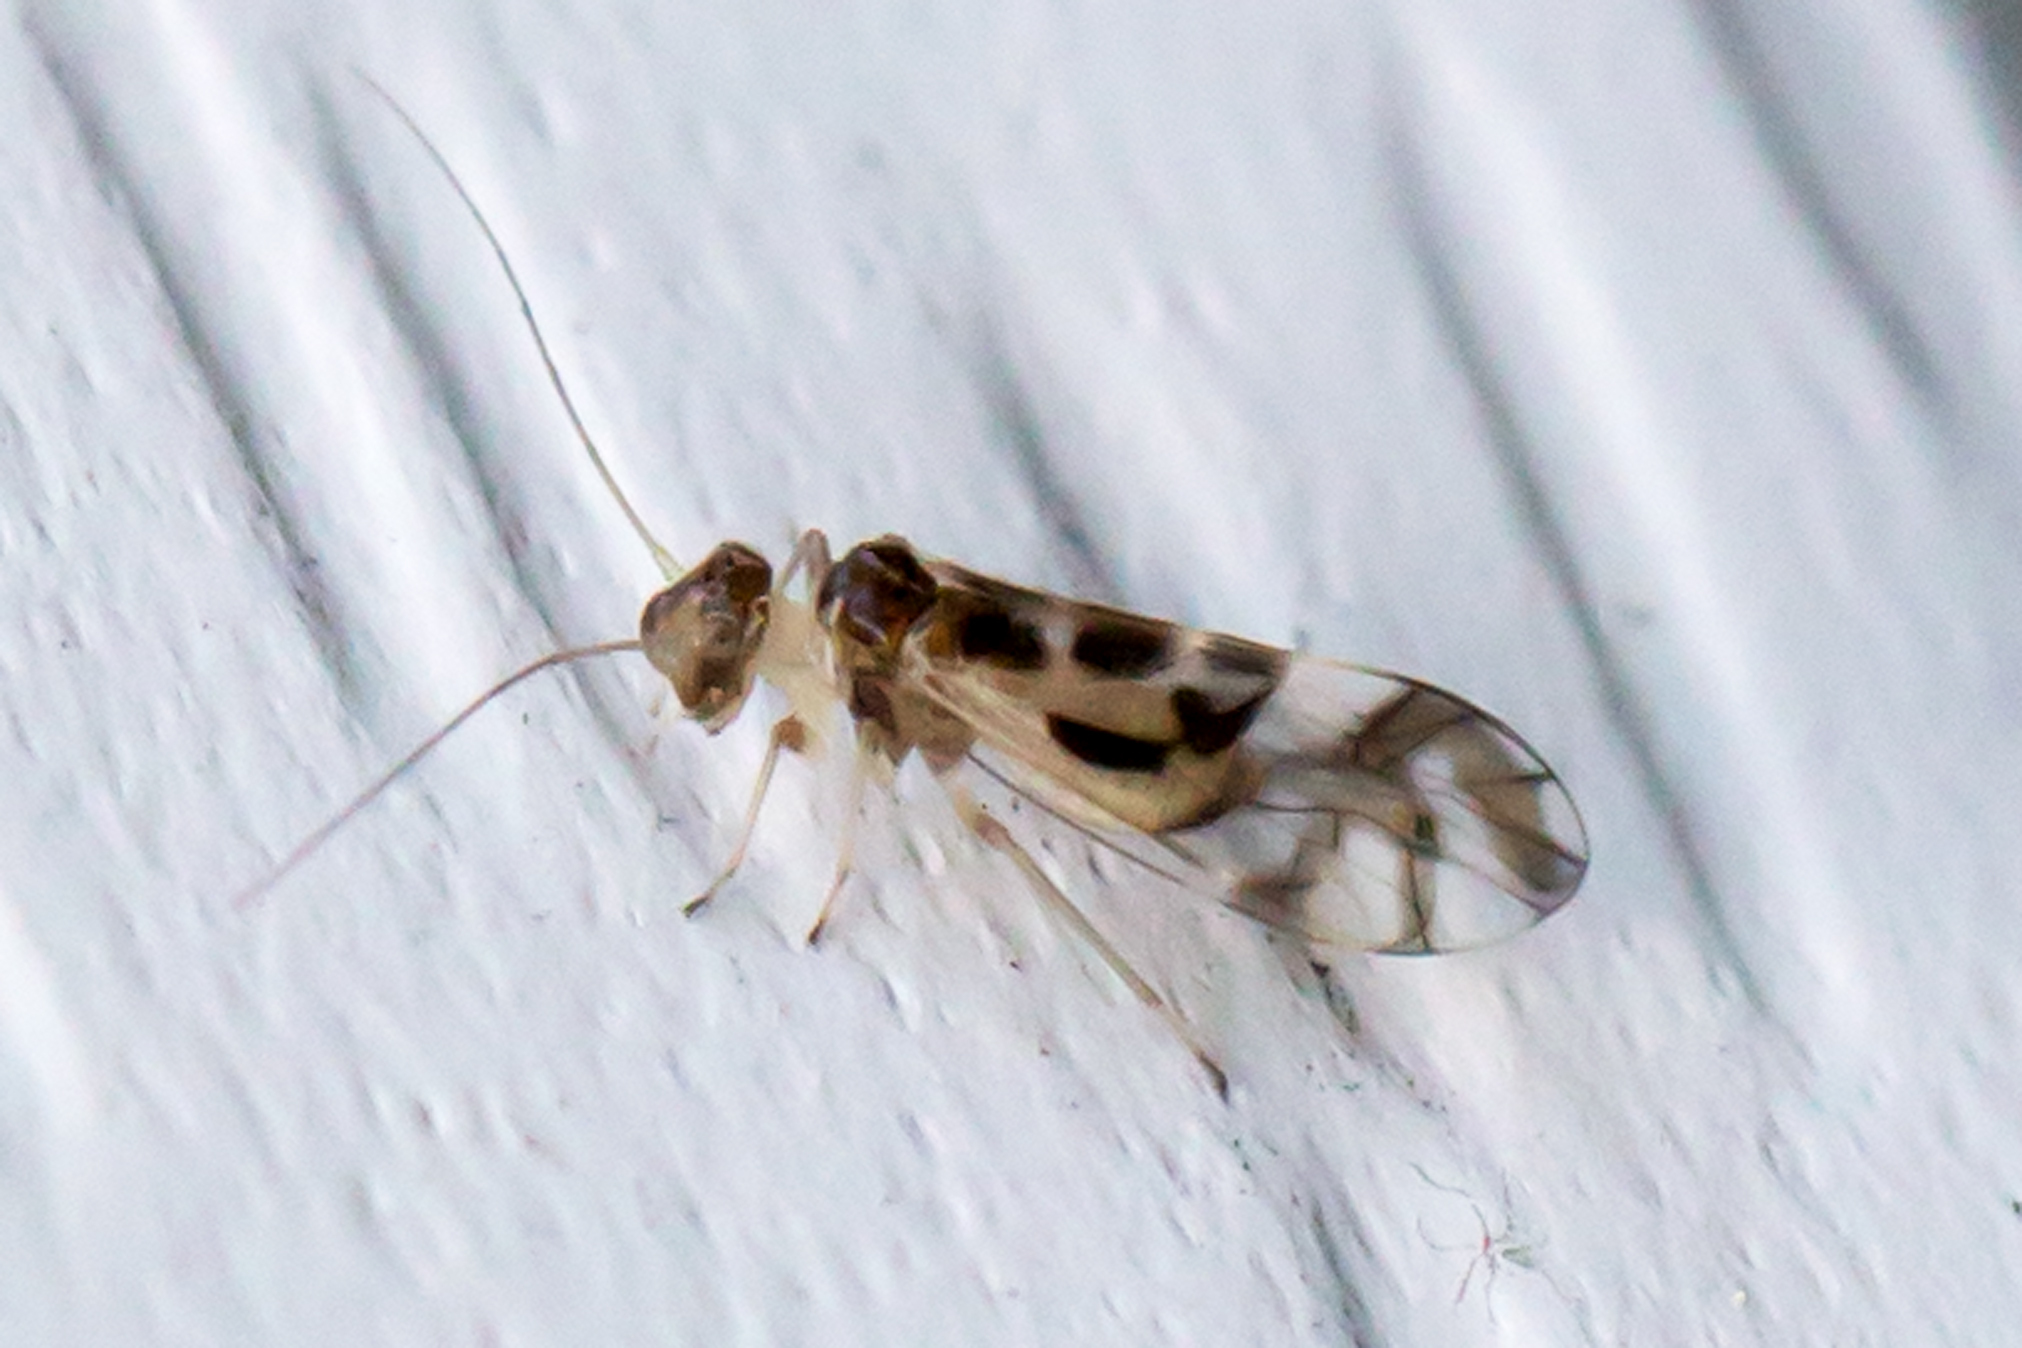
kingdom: Animalia
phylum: Arthropoda
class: Insecta
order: Psocodea
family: Stenopsocidae
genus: Graphopsocus
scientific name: Graphopsocus cruciatus
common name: Lizard bark louse
